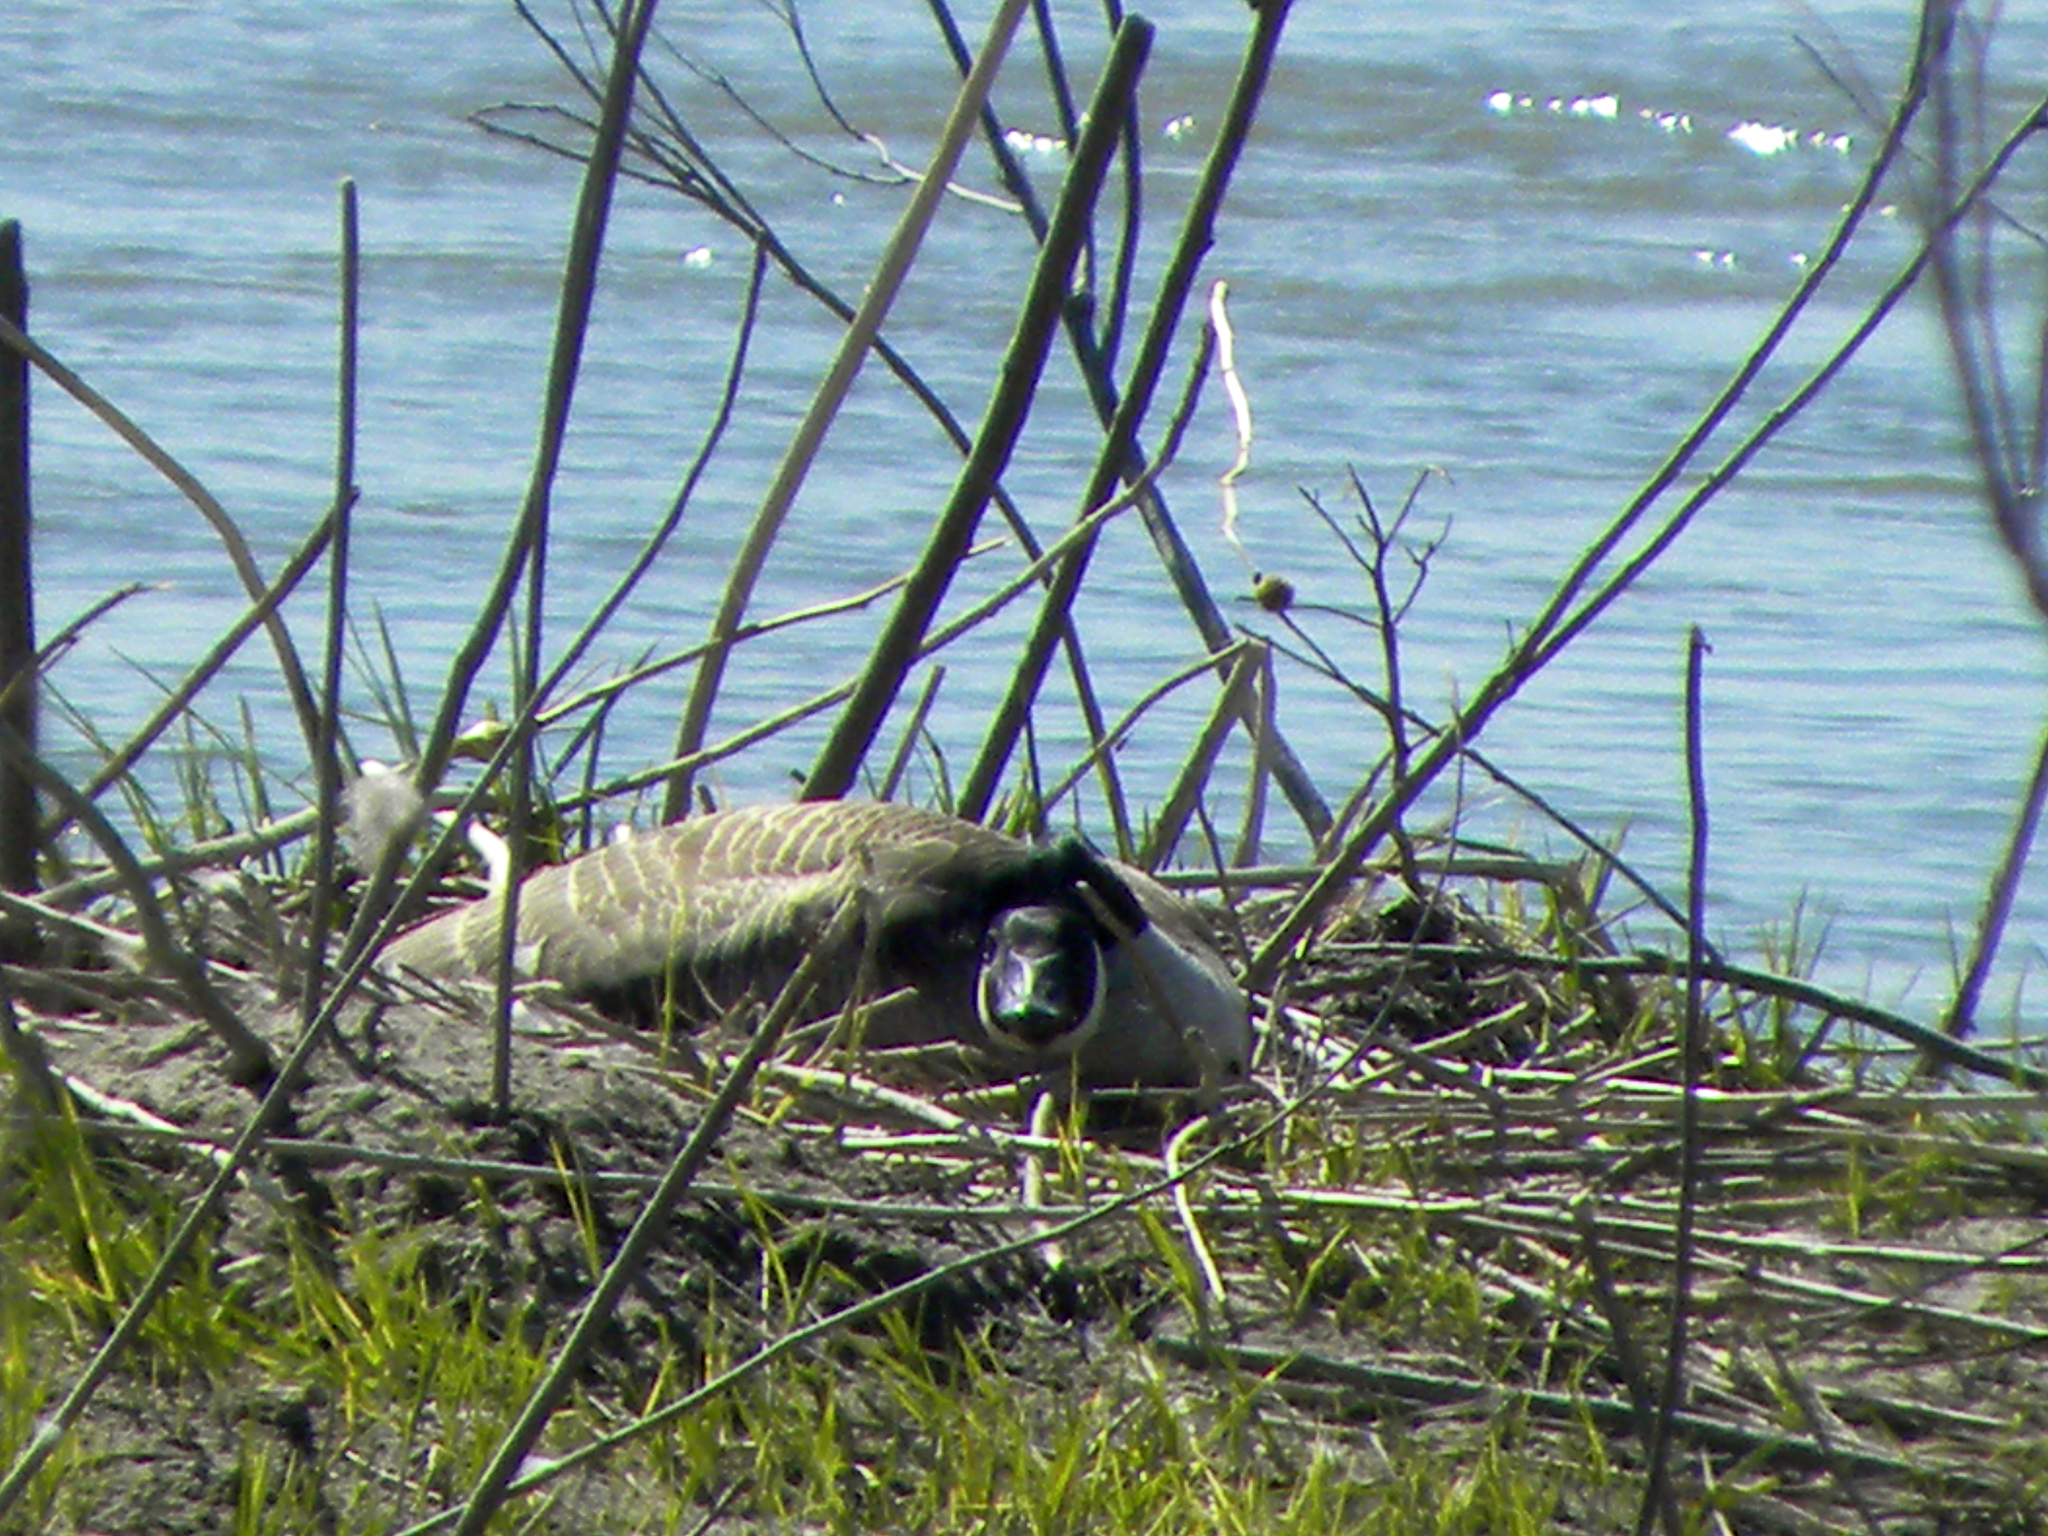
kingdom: Animalia
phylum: Chordata
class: Aves
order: Anseriformes
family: Anatidae
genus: Branta
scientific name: Branta canadensis
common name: Canada goose
